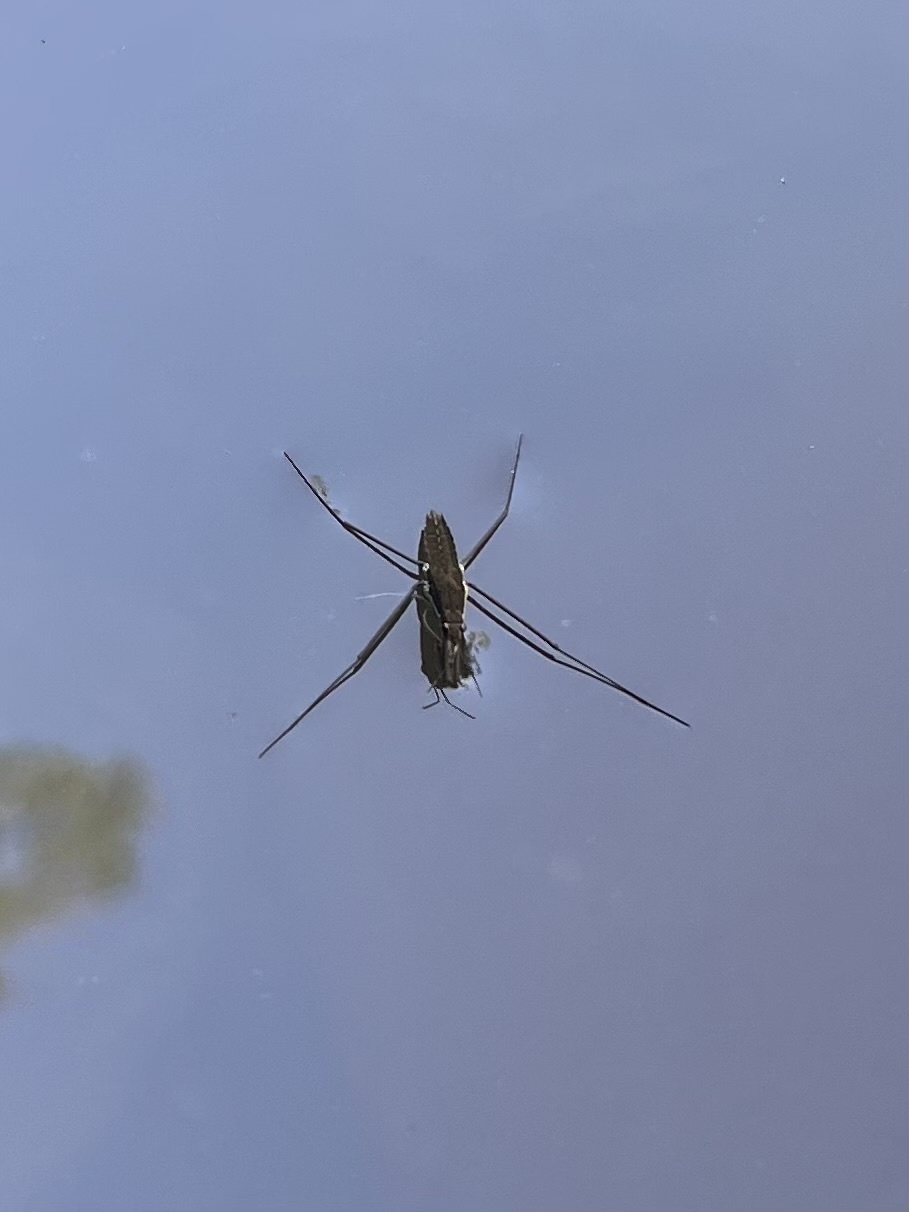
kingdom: Animalia
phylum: Arthropoda
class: Insecta
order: Hemiptera
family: Gerridae
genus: Aquarius
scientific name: Aquarius remigis
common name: Common water strider
